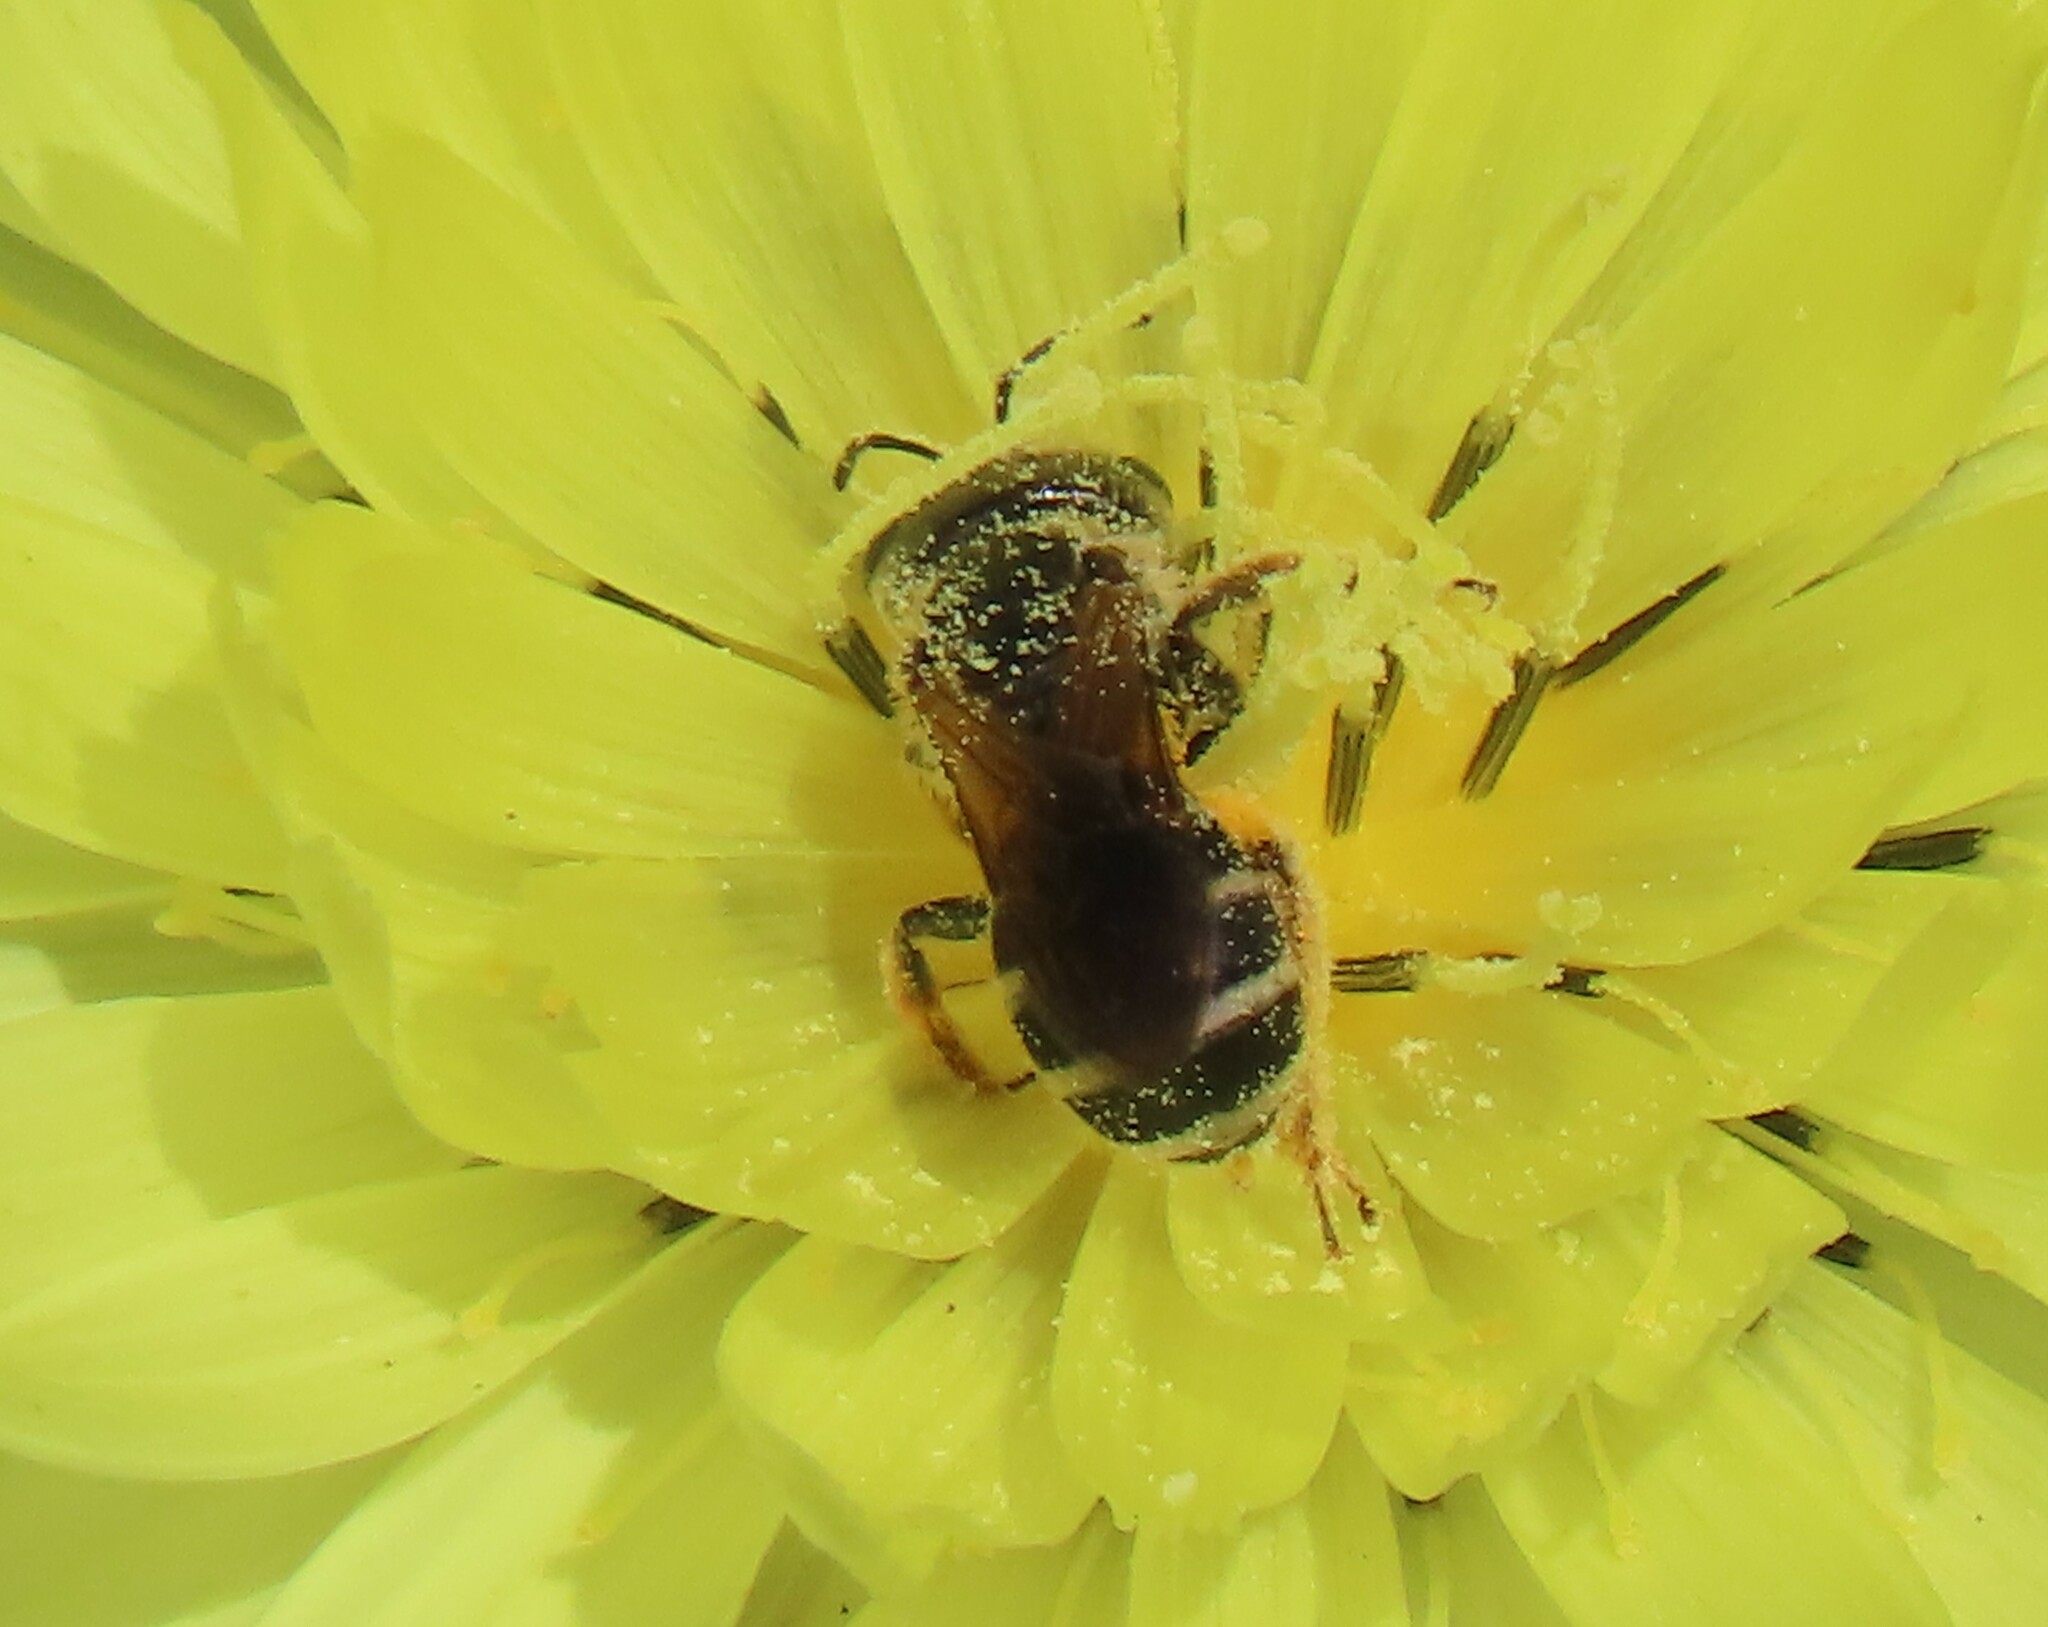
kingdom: Animalia
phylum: Arthropoda
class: Insecta
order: Hymenoptera
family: Halictidae
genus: Halictus
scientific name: Halictus poeyi
